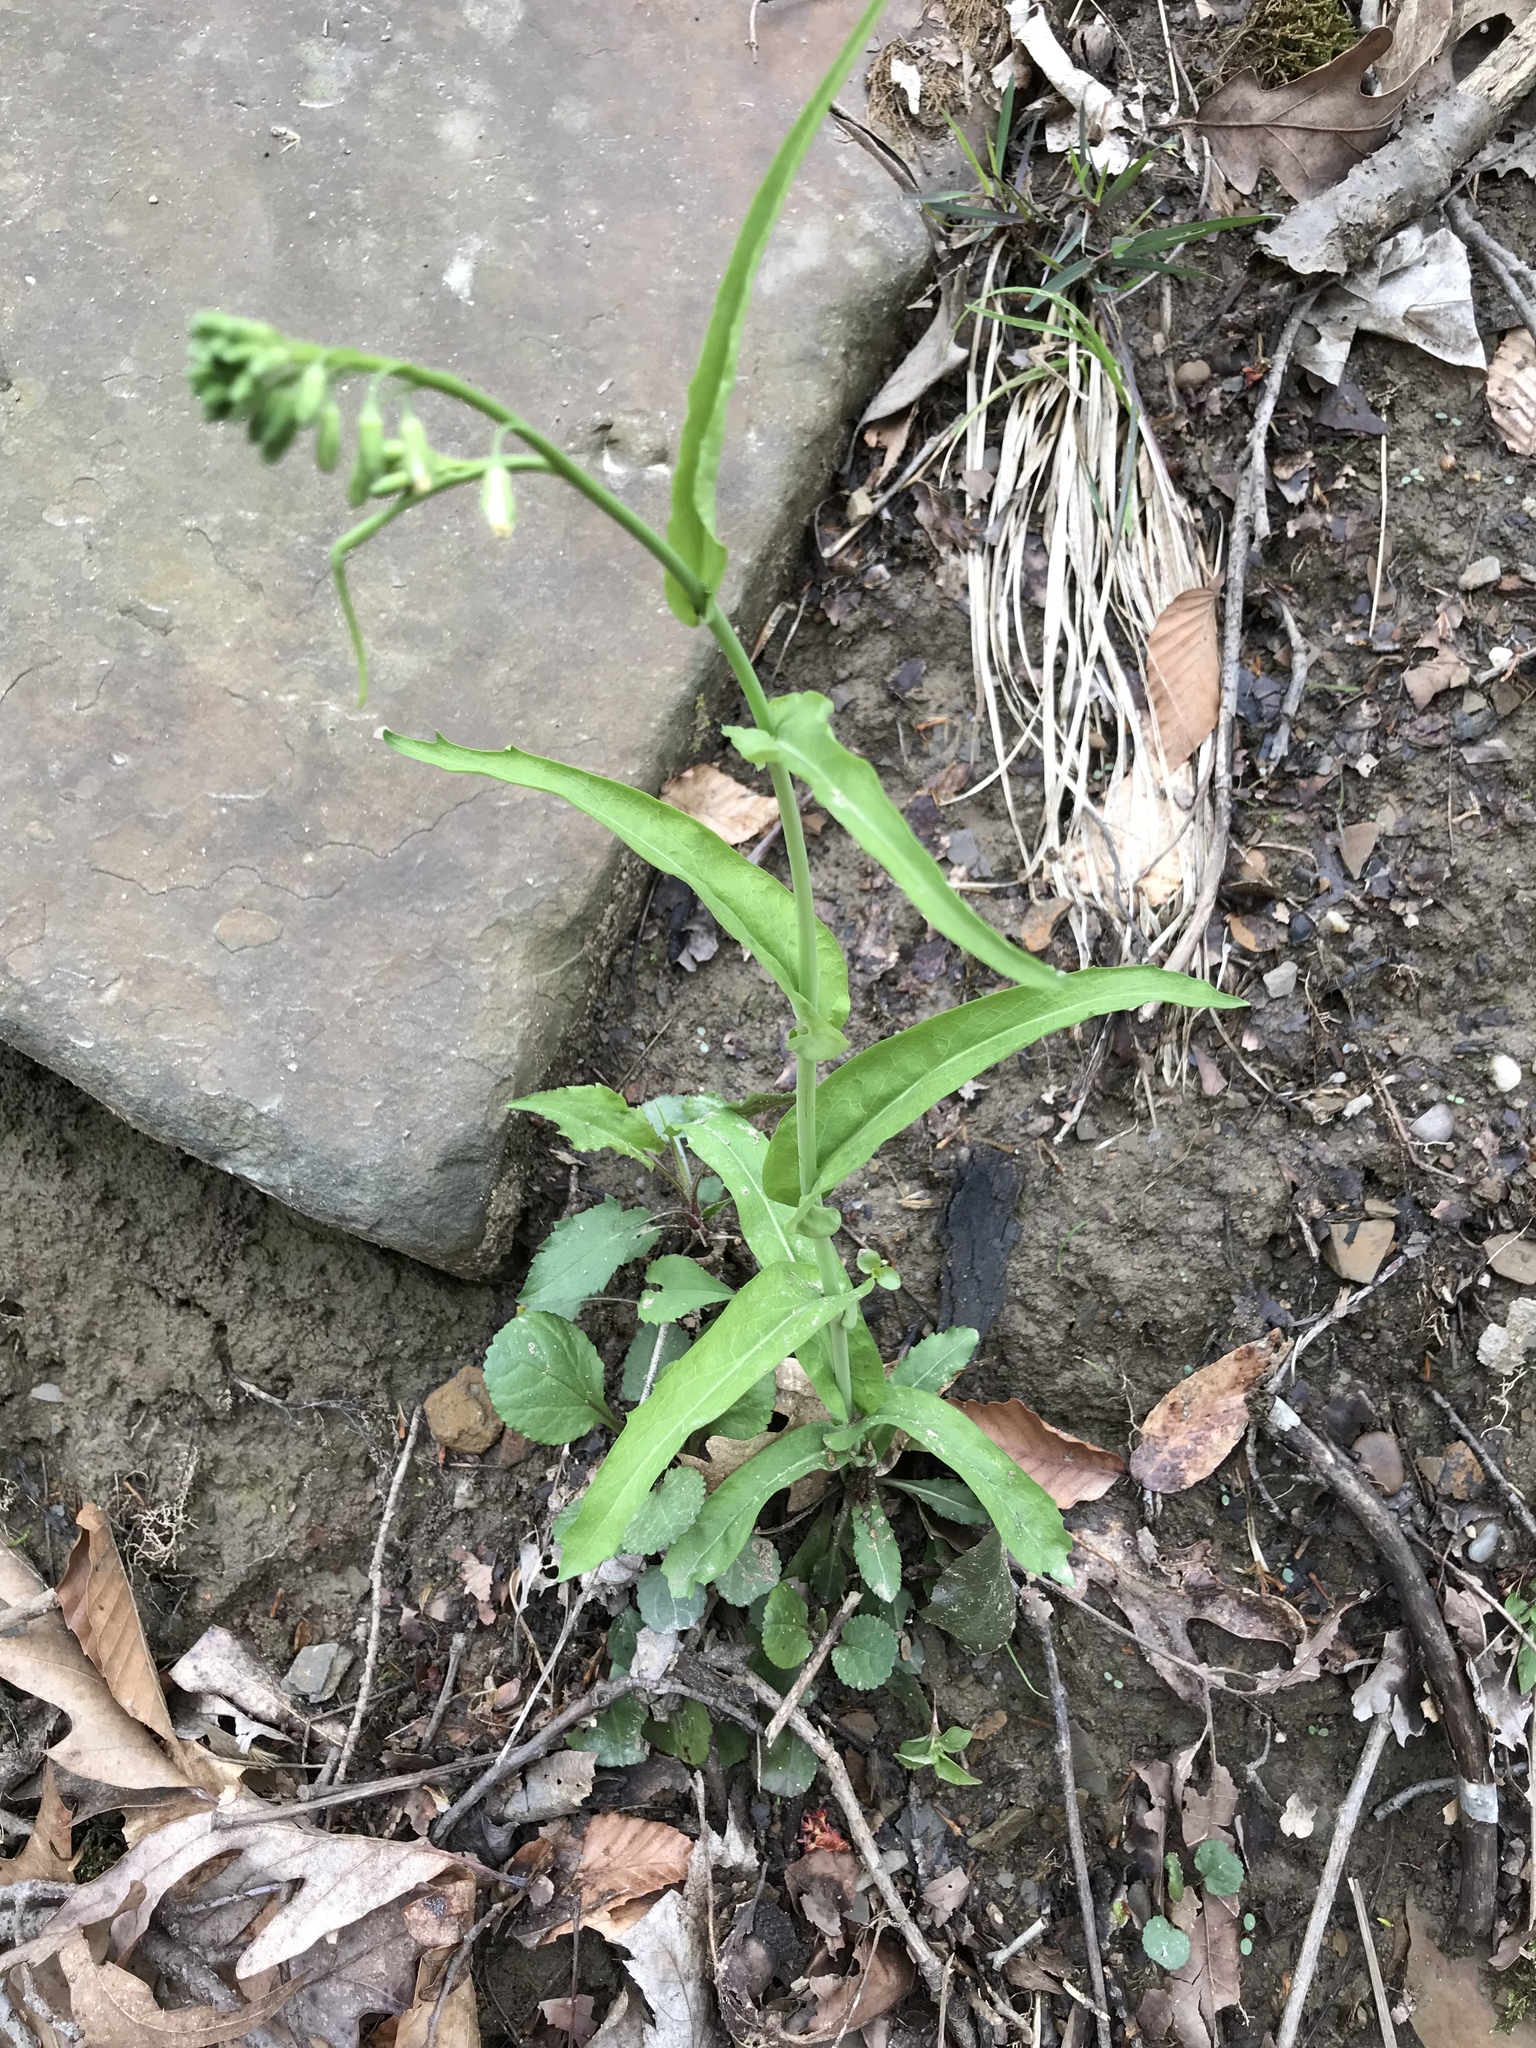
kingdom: Plantae
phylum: Tracheophyta
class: Magnoliopsida
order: Brassicales
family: Brassicaceae
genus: Borodinia
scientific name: Borodinia laevigata
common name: Smooth rockcress
